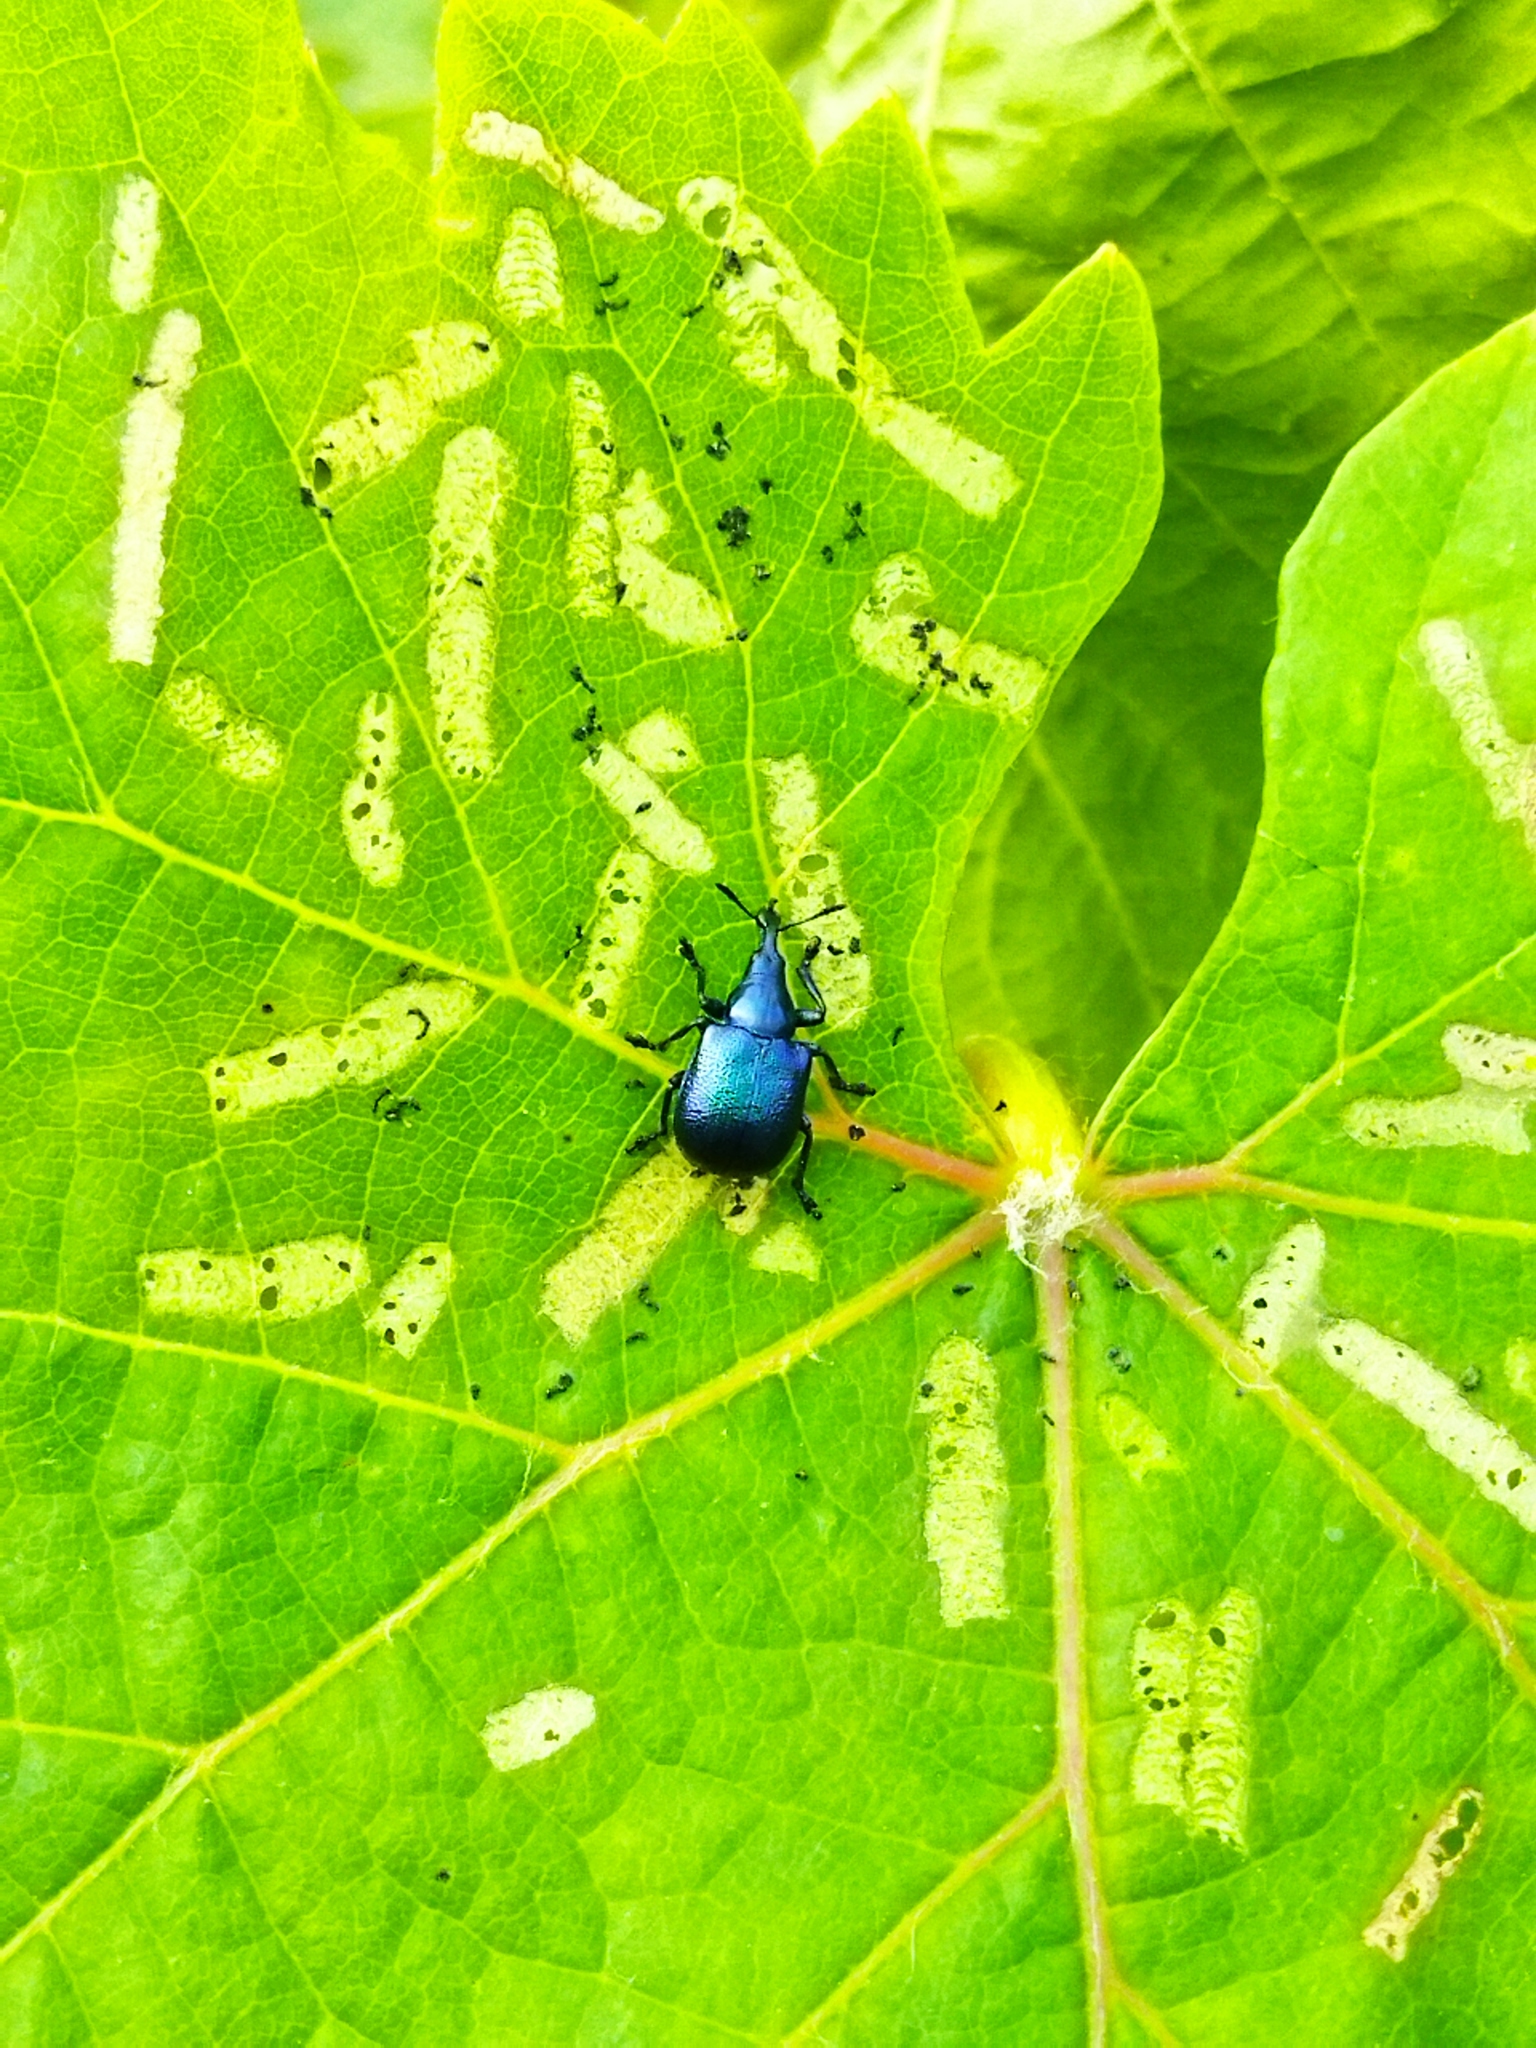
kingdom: Animalia
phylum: Arthropoda
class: Insecta
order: Coleoptera
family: Attelabidae
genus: Byctiscus
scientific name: Byctiscus betulae
